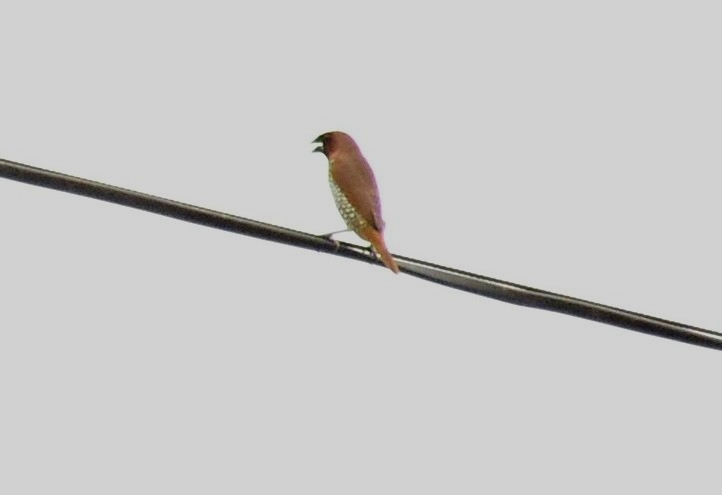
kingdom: Animalia
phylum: Chordata
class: Aves
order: Passeriformes
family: Estrildidae
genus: Lonchura
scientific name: Lonchura punctulata
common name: Scaly-breasted munia
